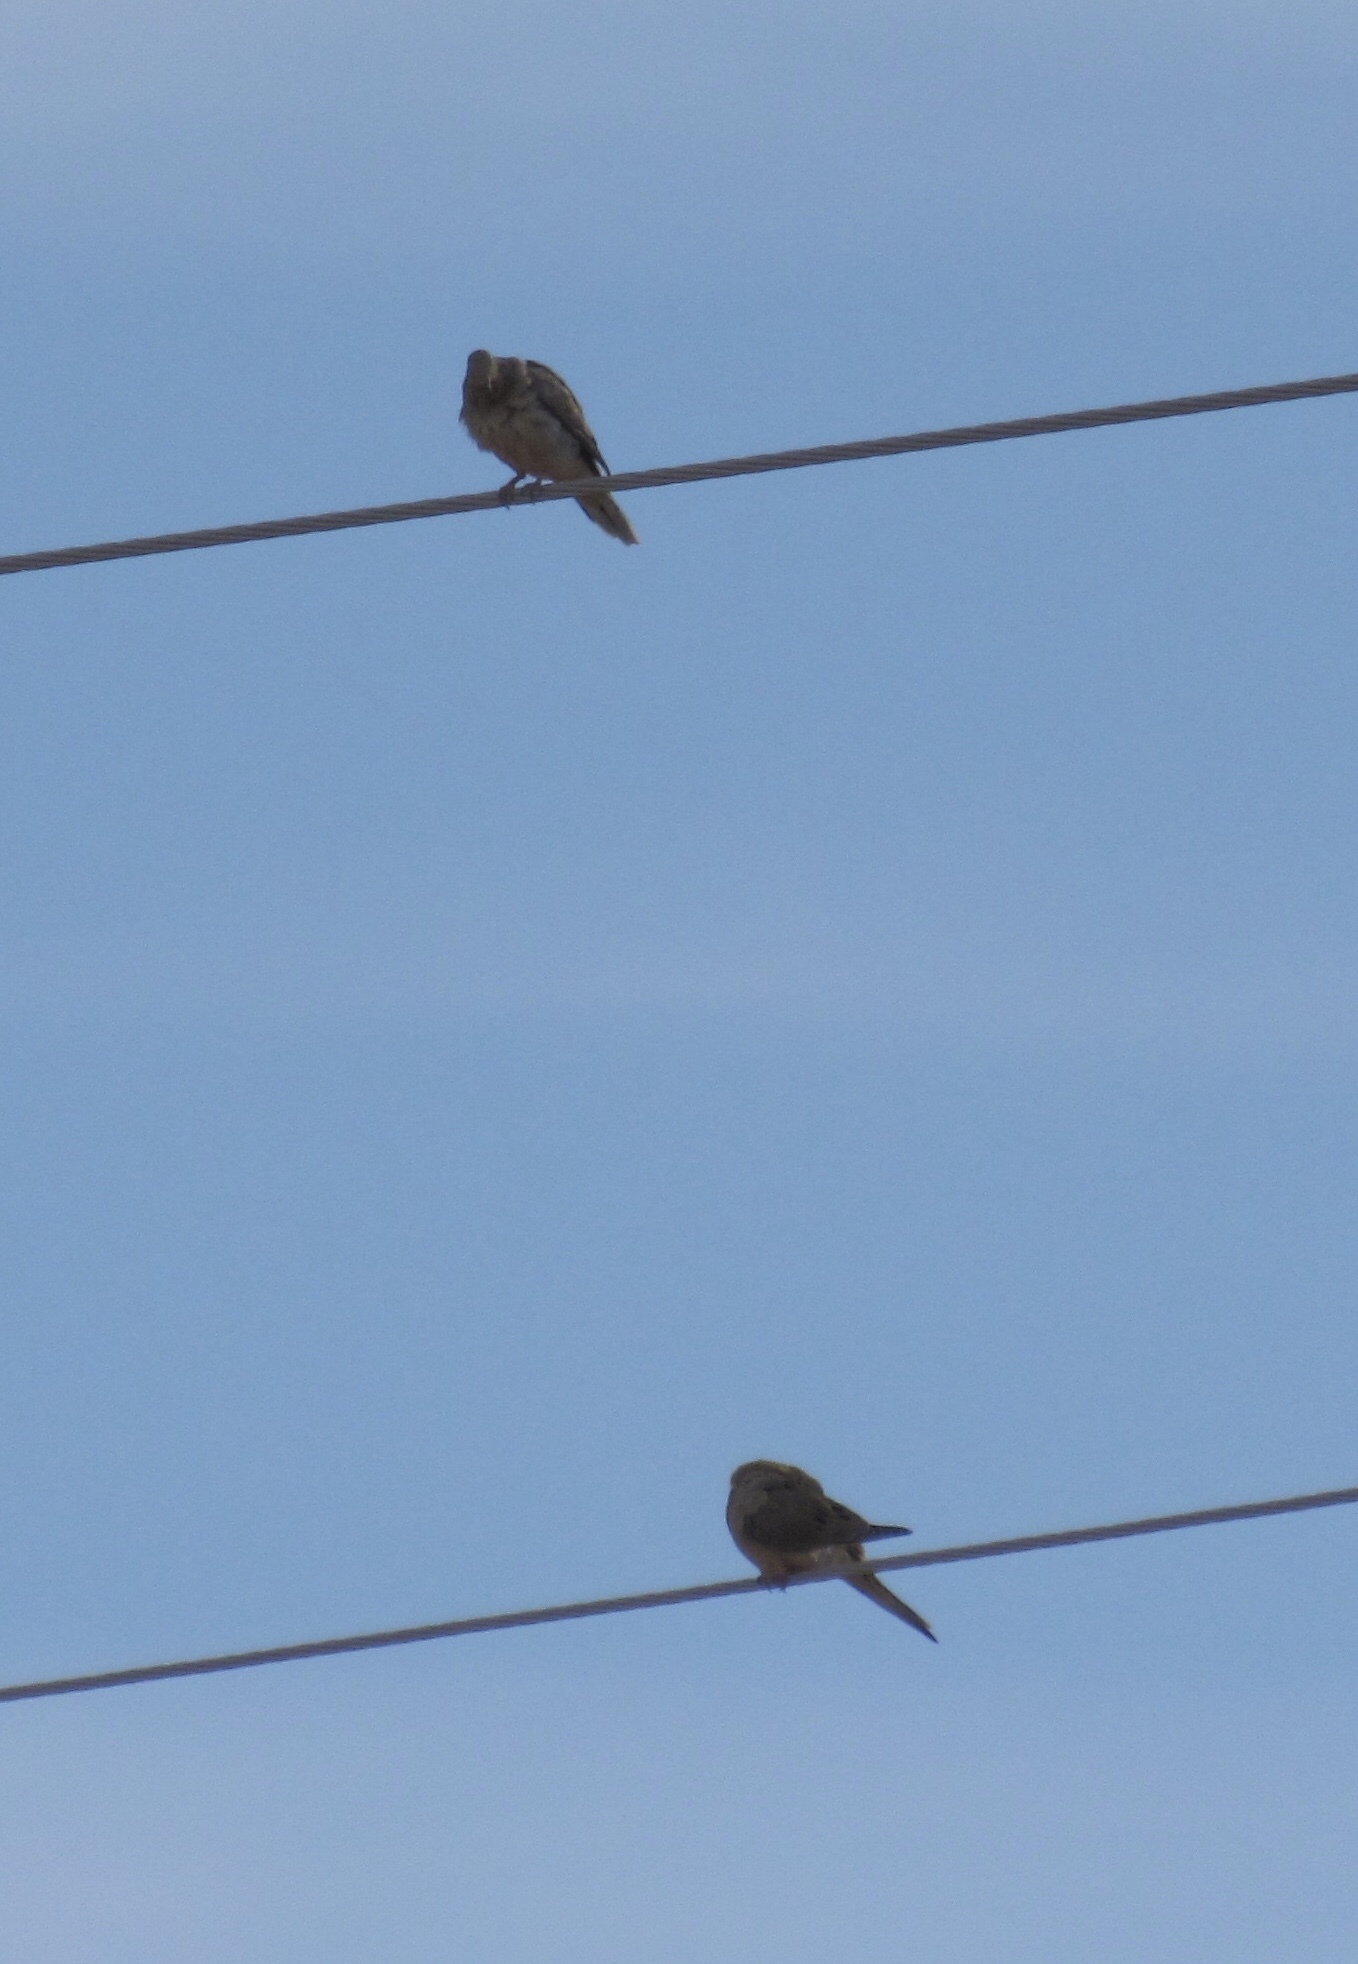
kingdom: Animalia
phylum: Chordata
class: Aves
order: Columbiformes
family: Columbidae
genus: Zenaida
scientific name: Zenaida macroura
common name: Mourning dove
